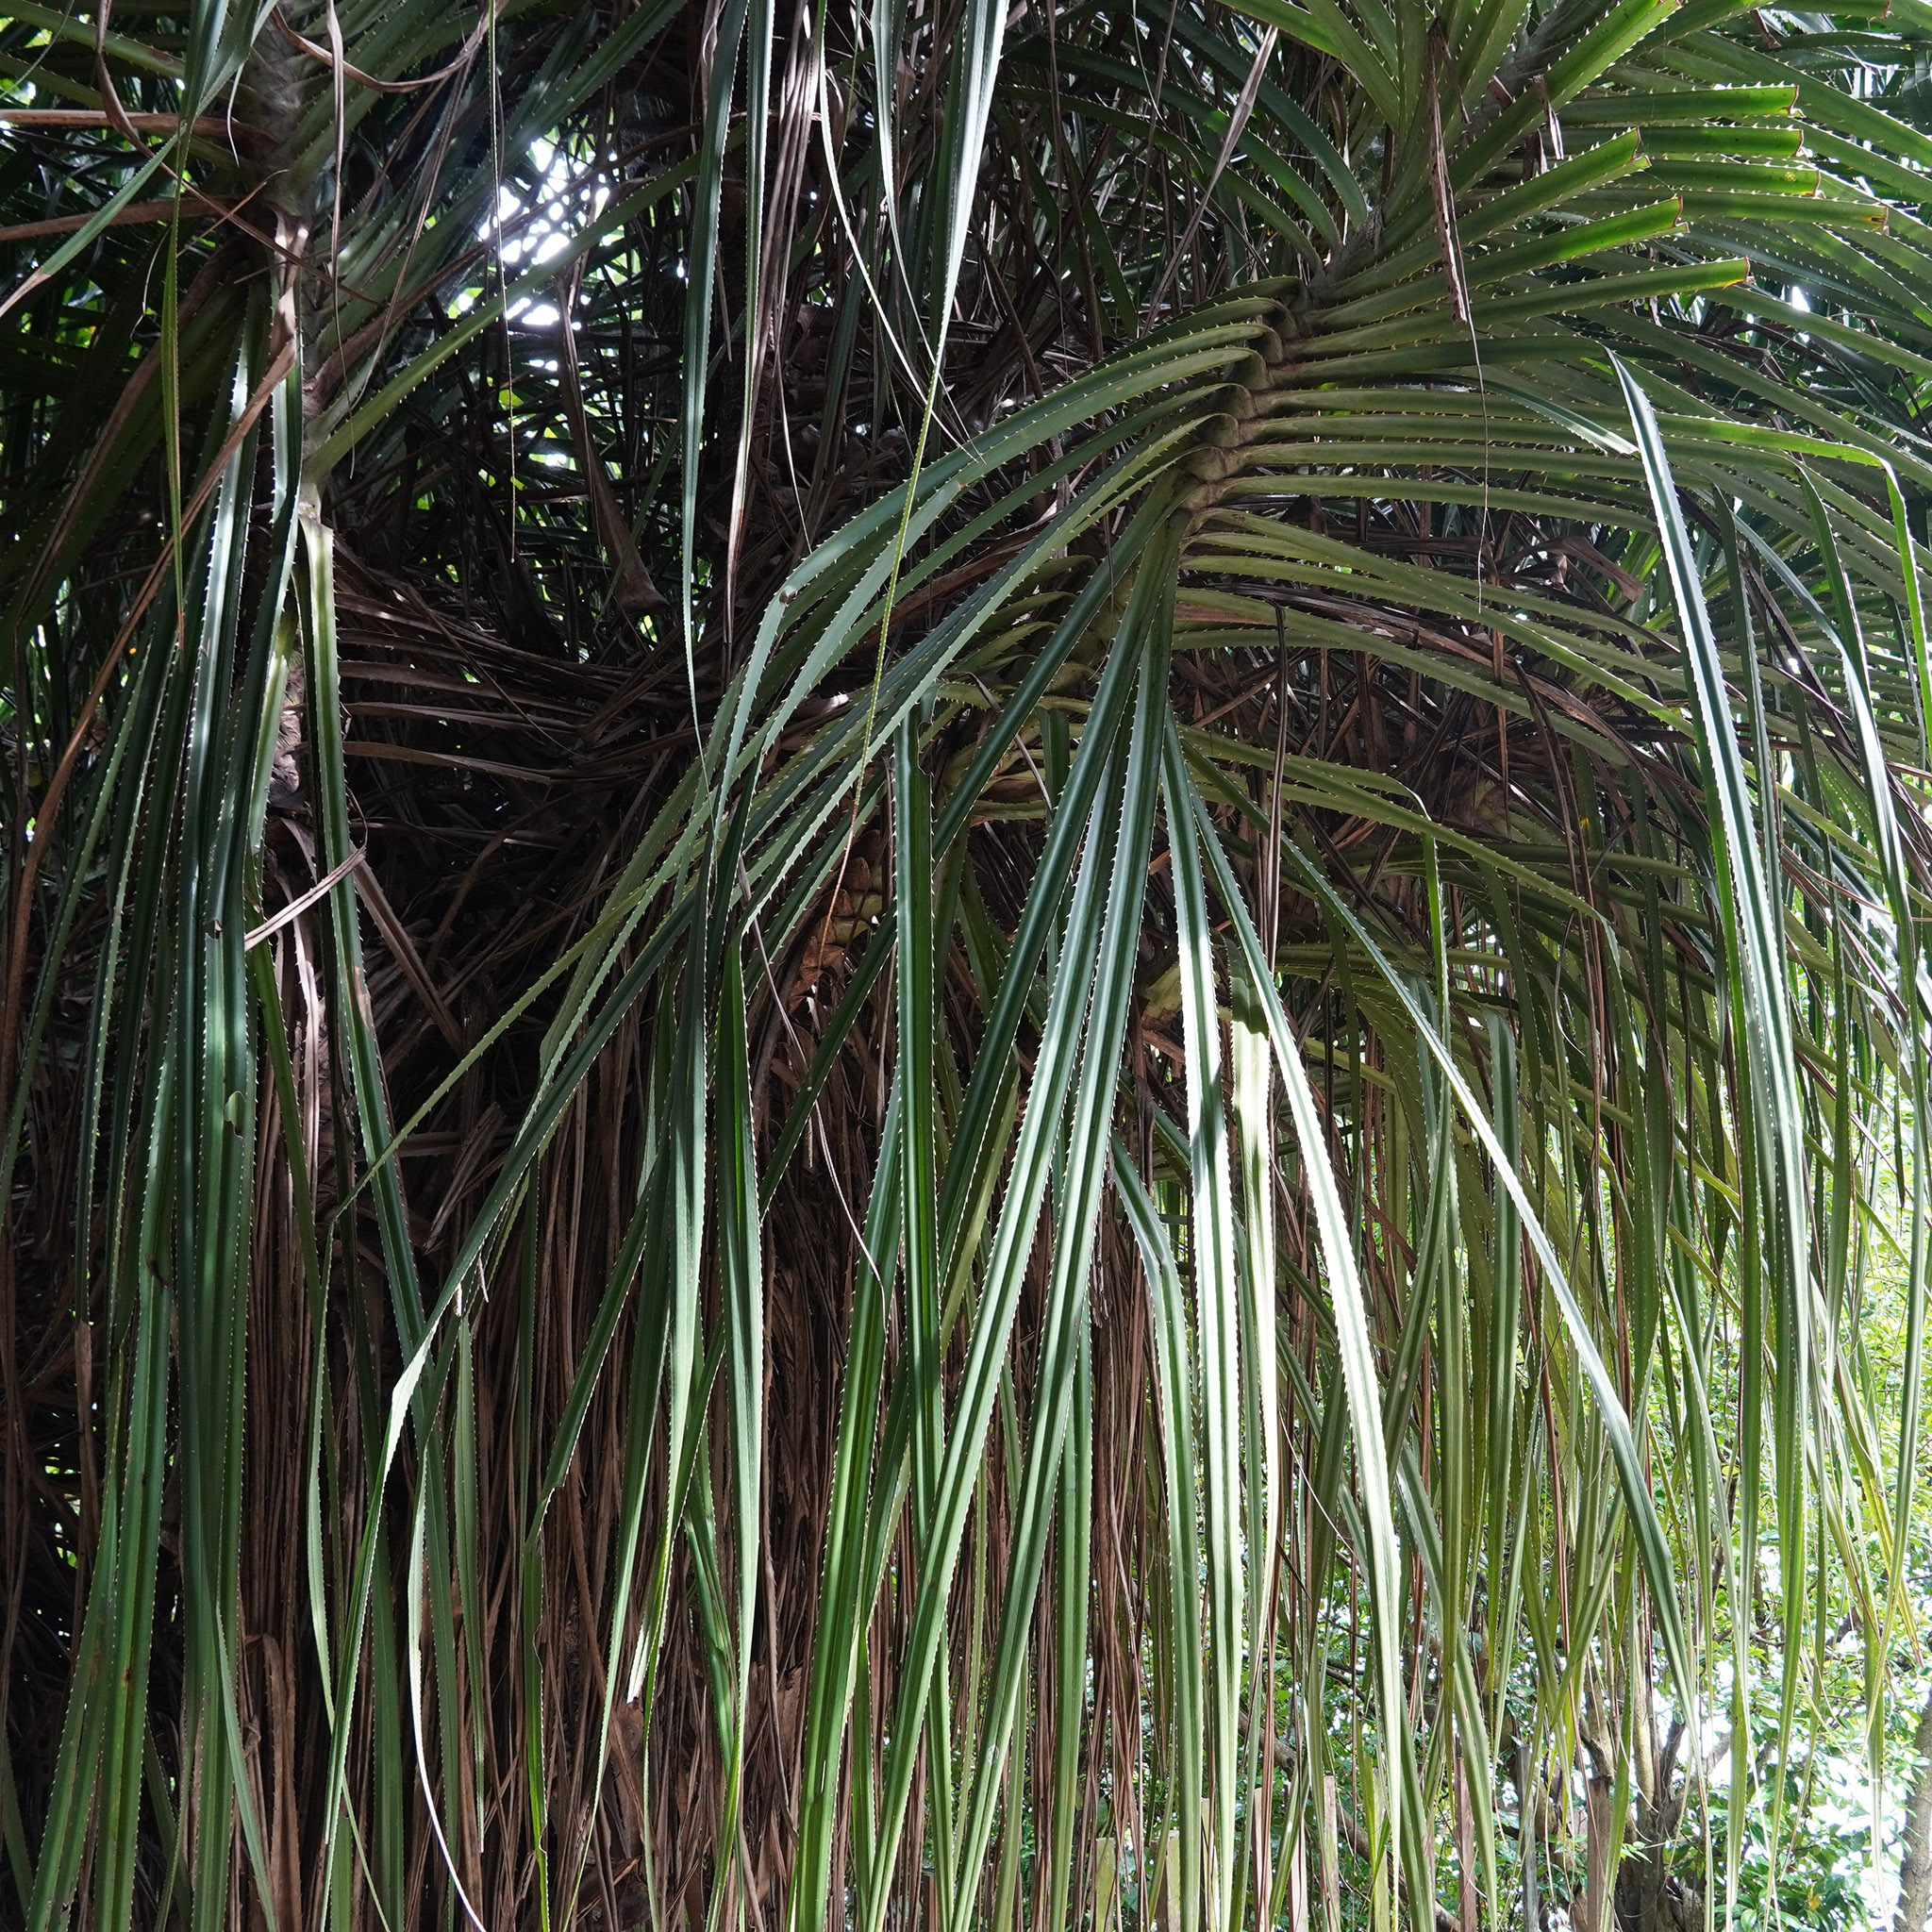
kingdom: Plantae
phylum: Tracheophyta
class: Liliopsida
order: Pandanales
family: Pandanaceae
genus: Pandanus
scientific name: Pandanus odorifer
